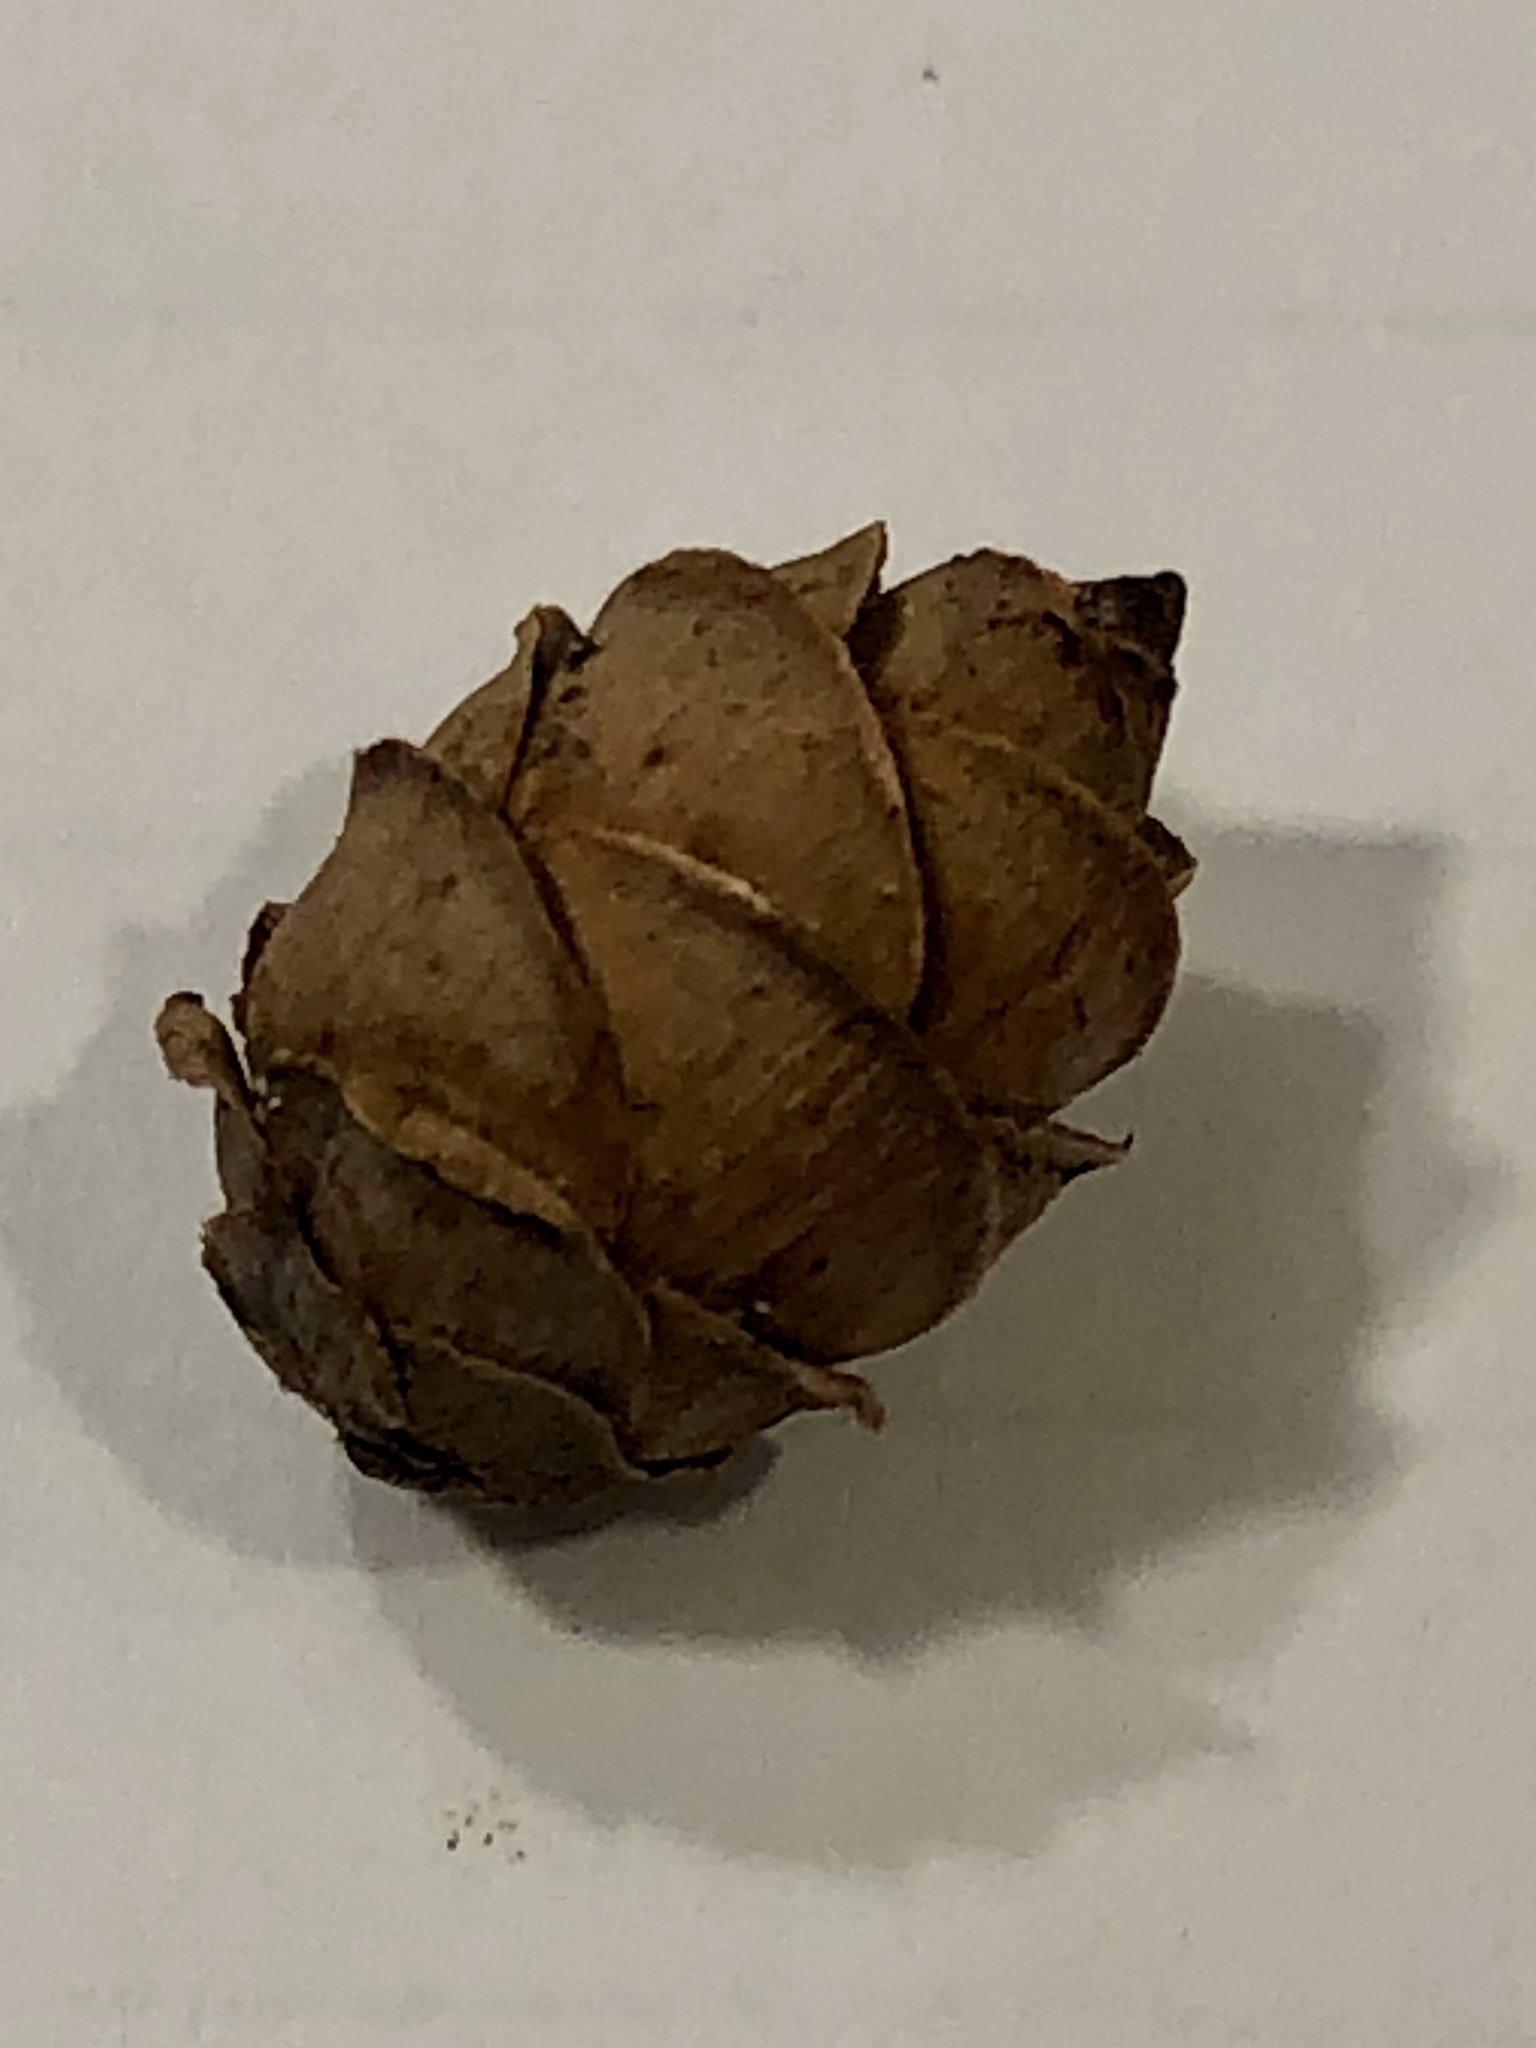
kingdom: Plantae
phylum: Tracheophyta
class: Pinopsida
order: Pinales
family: Pinaceae
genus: Tsuga
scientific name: Tsuga canadensis
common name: Eastern hemlock
